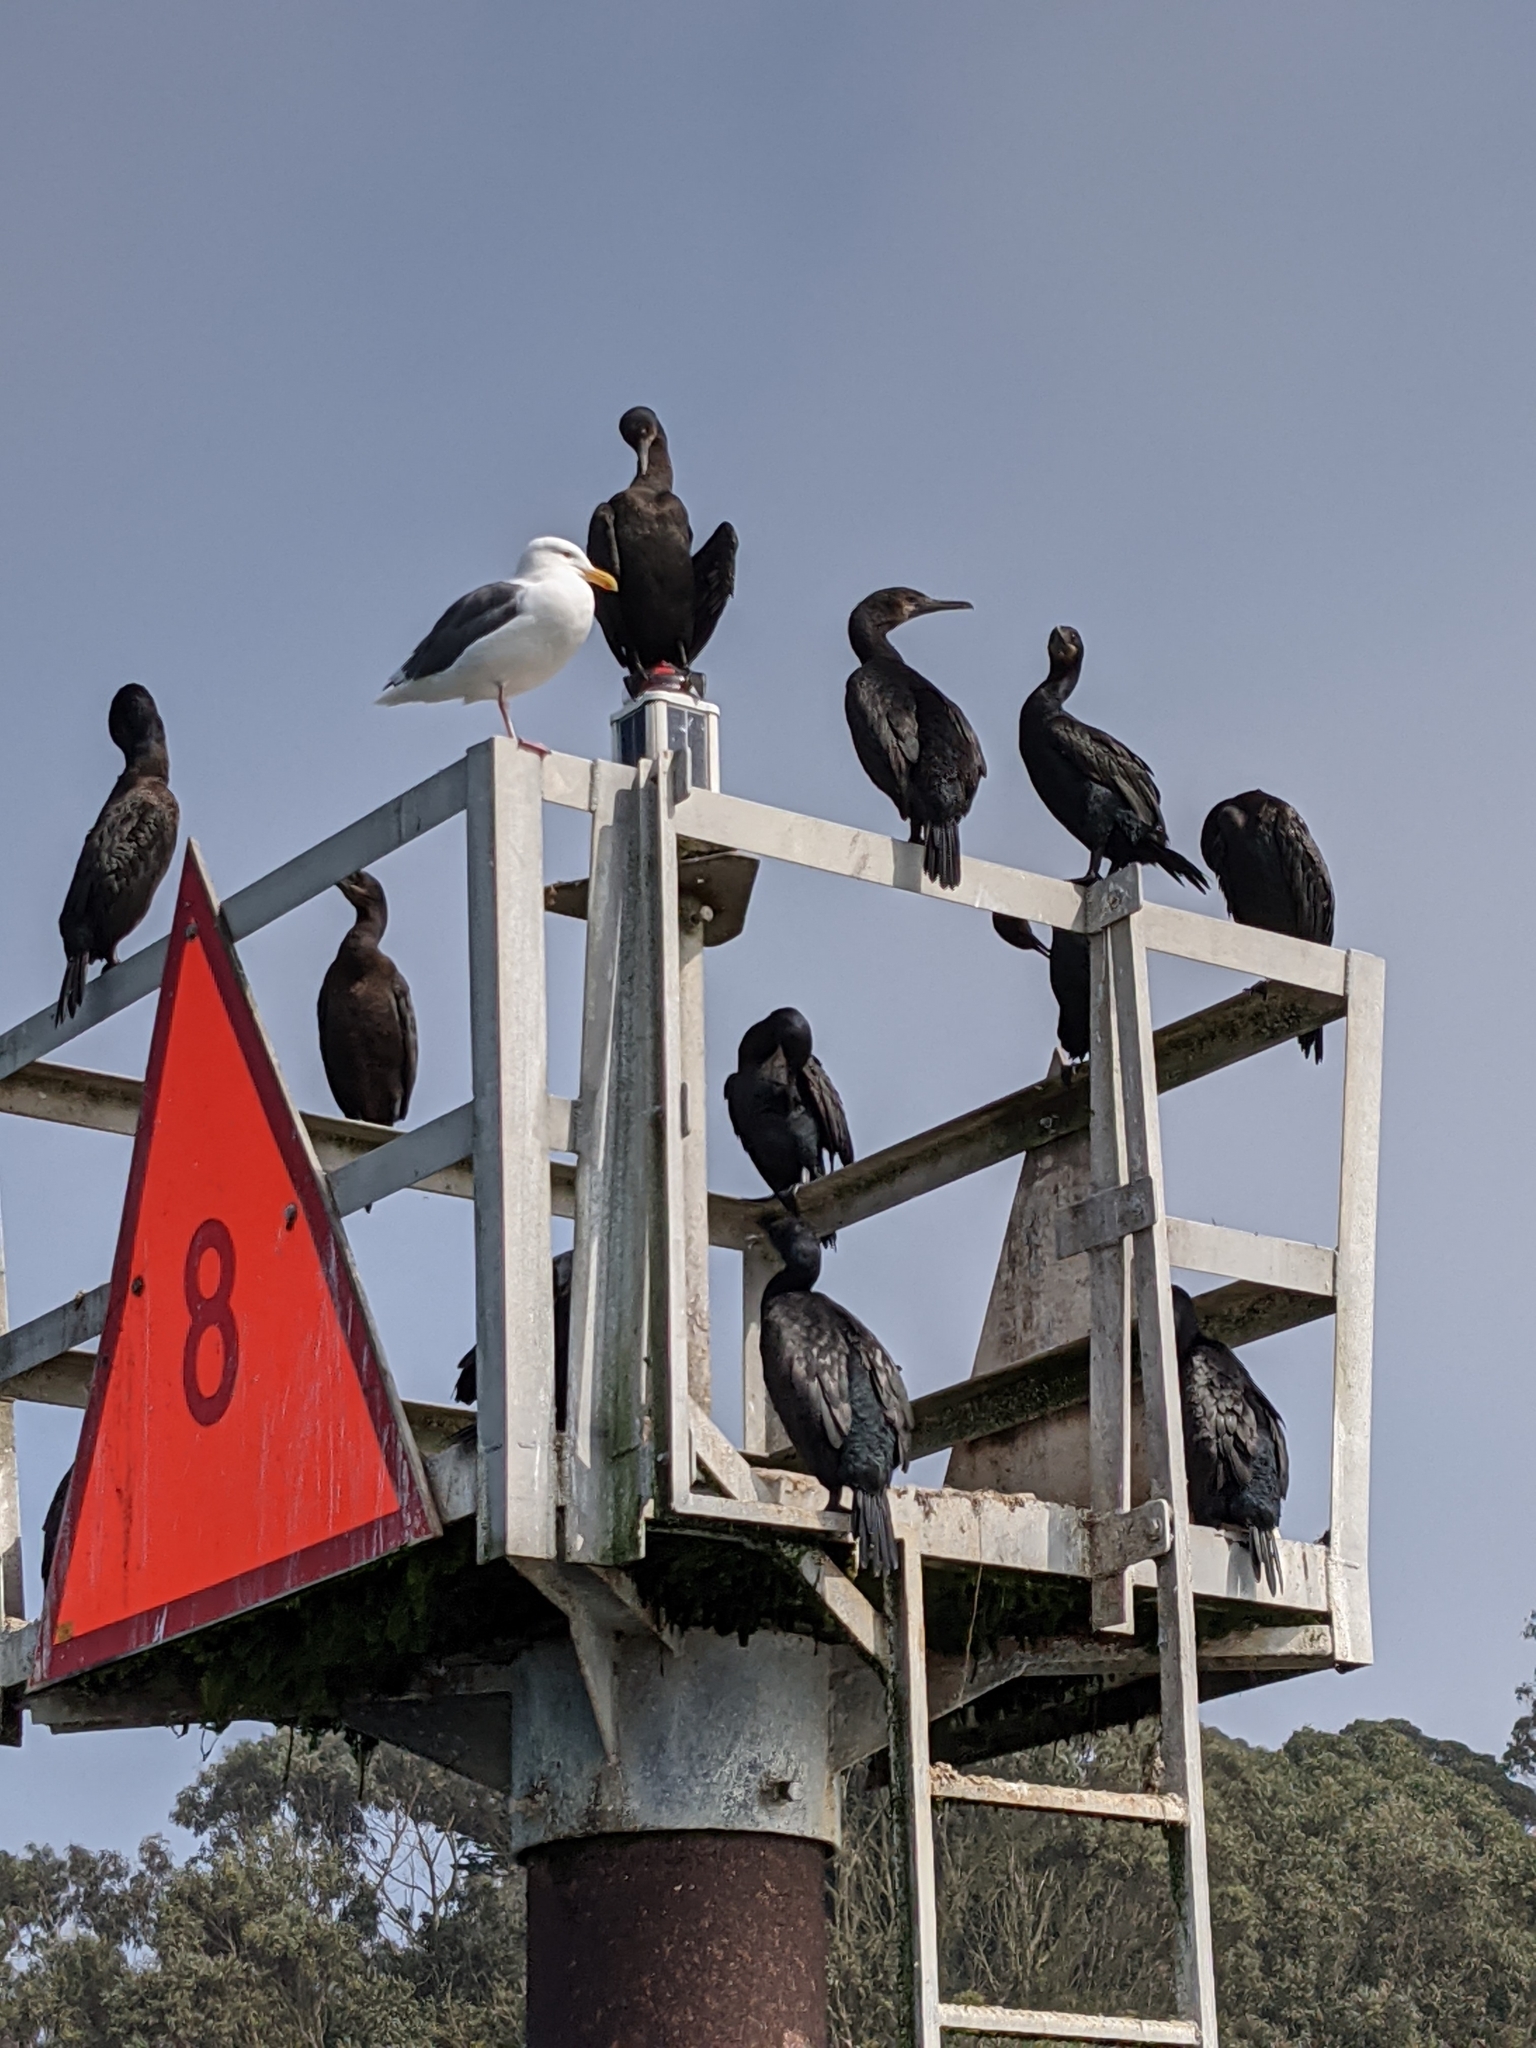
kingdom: Animalia
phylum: Chordata
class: Aves
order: Suliformes
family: Phalacrocoracidae
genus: Urile
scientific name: Urile penicillatus
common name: Brandt's cormorant
